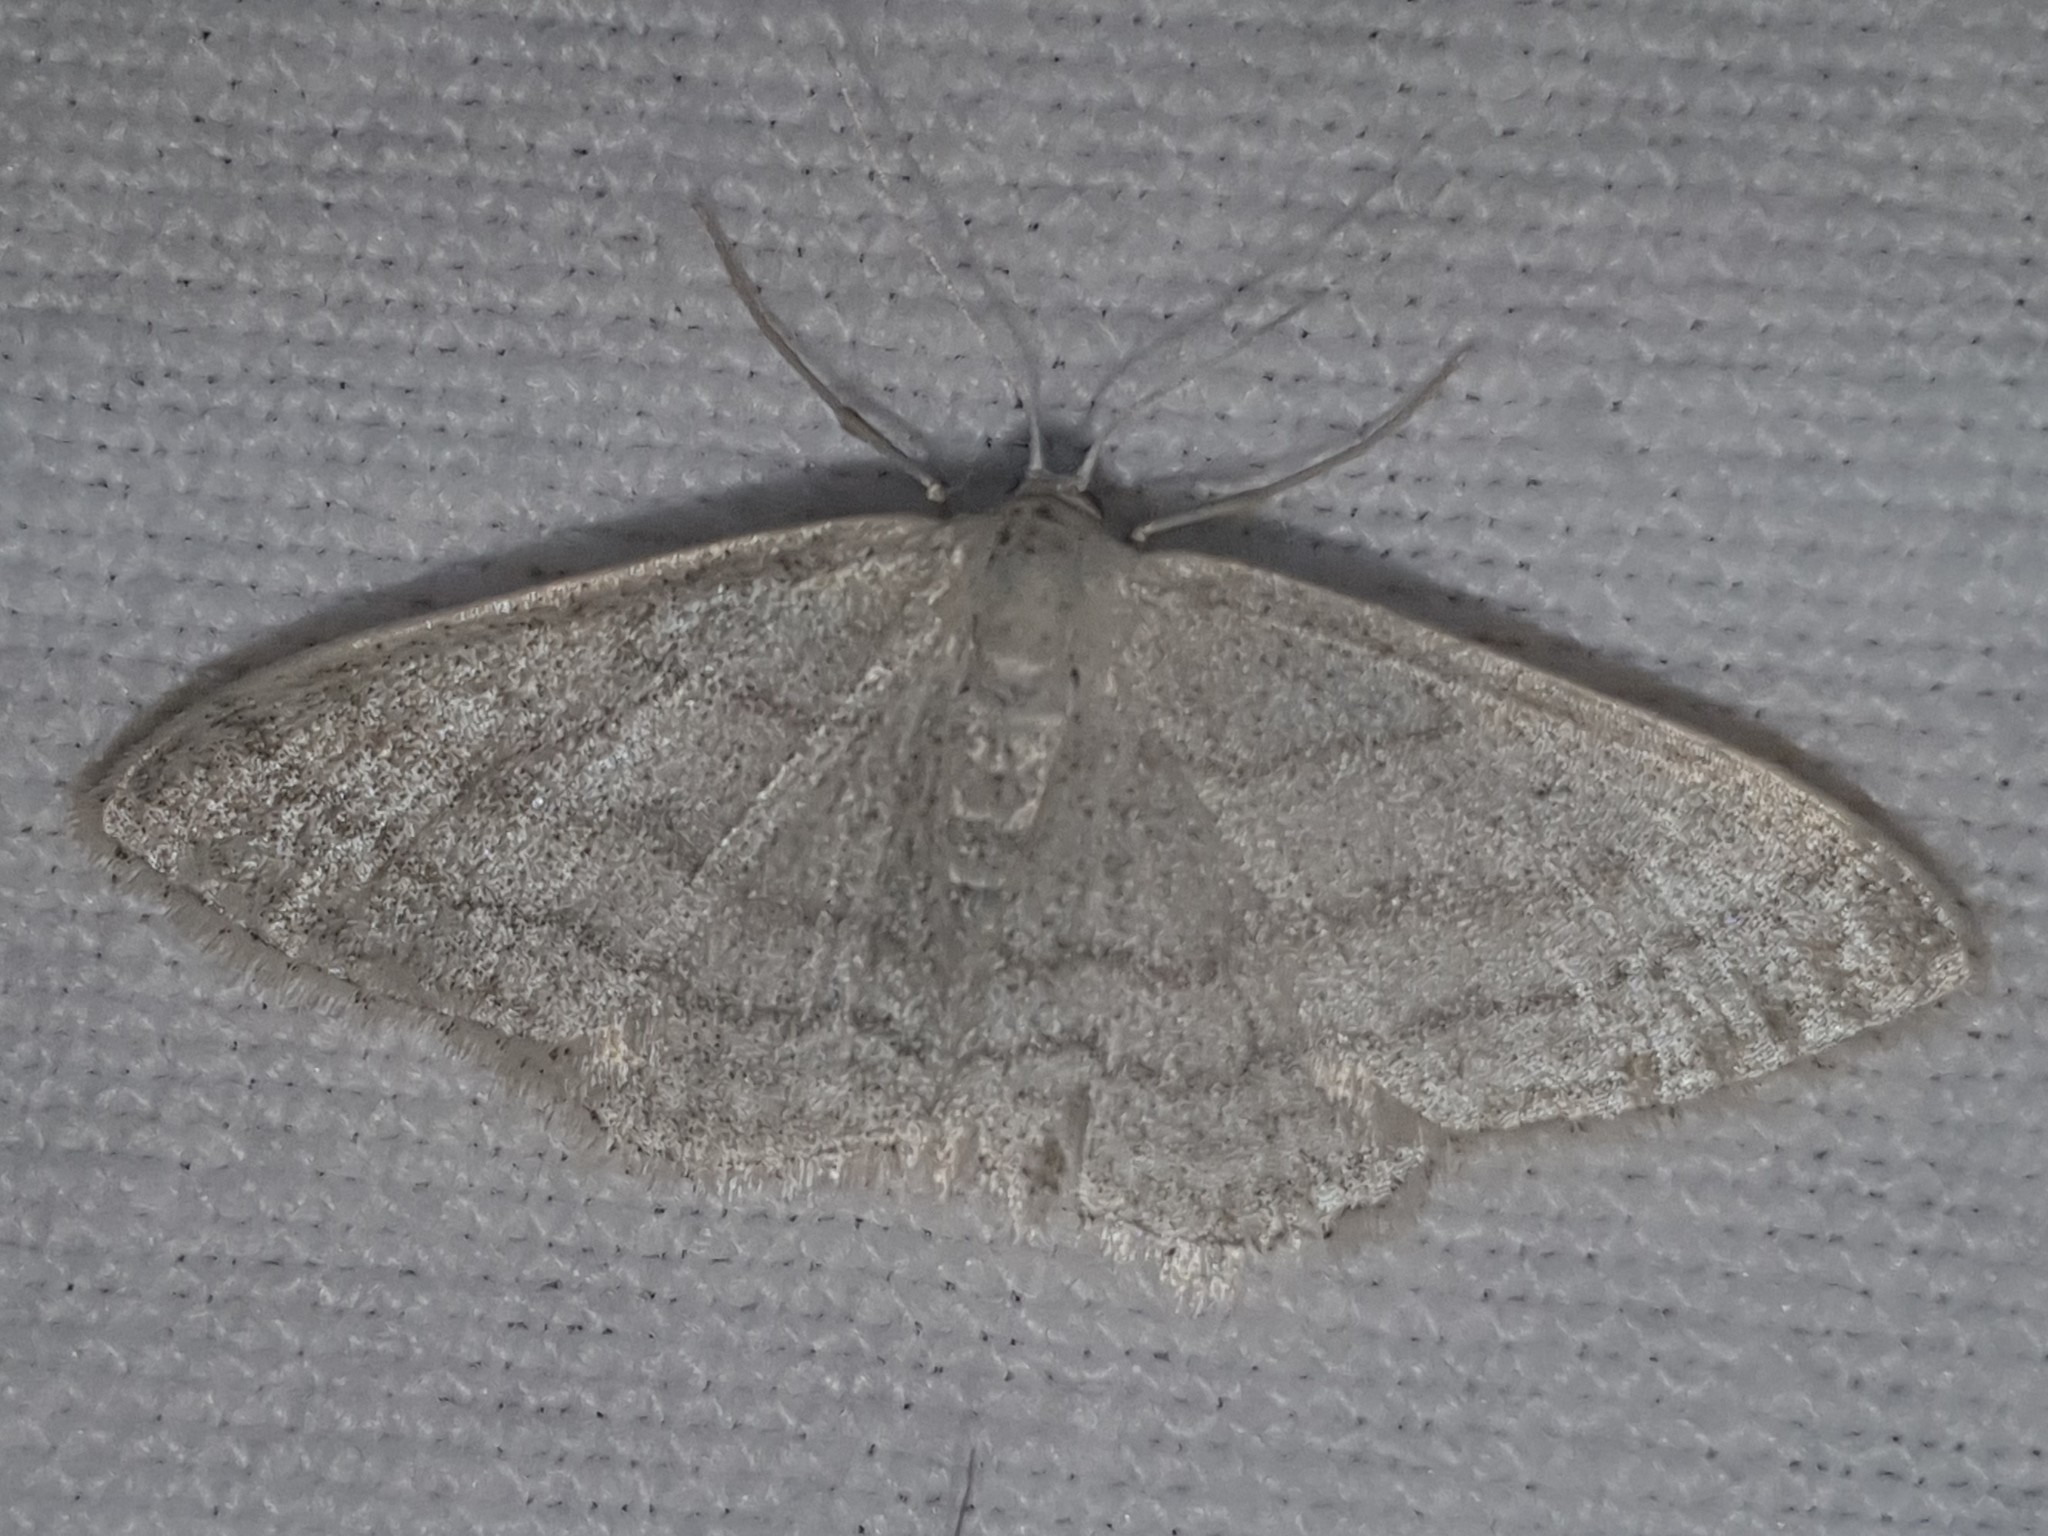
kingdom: Animalia
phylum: Arthropoda
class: Insecta
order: Lepidoptera
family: Geometridae
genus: Idaea
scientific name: Idaea subsericeata
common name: Satin wave
